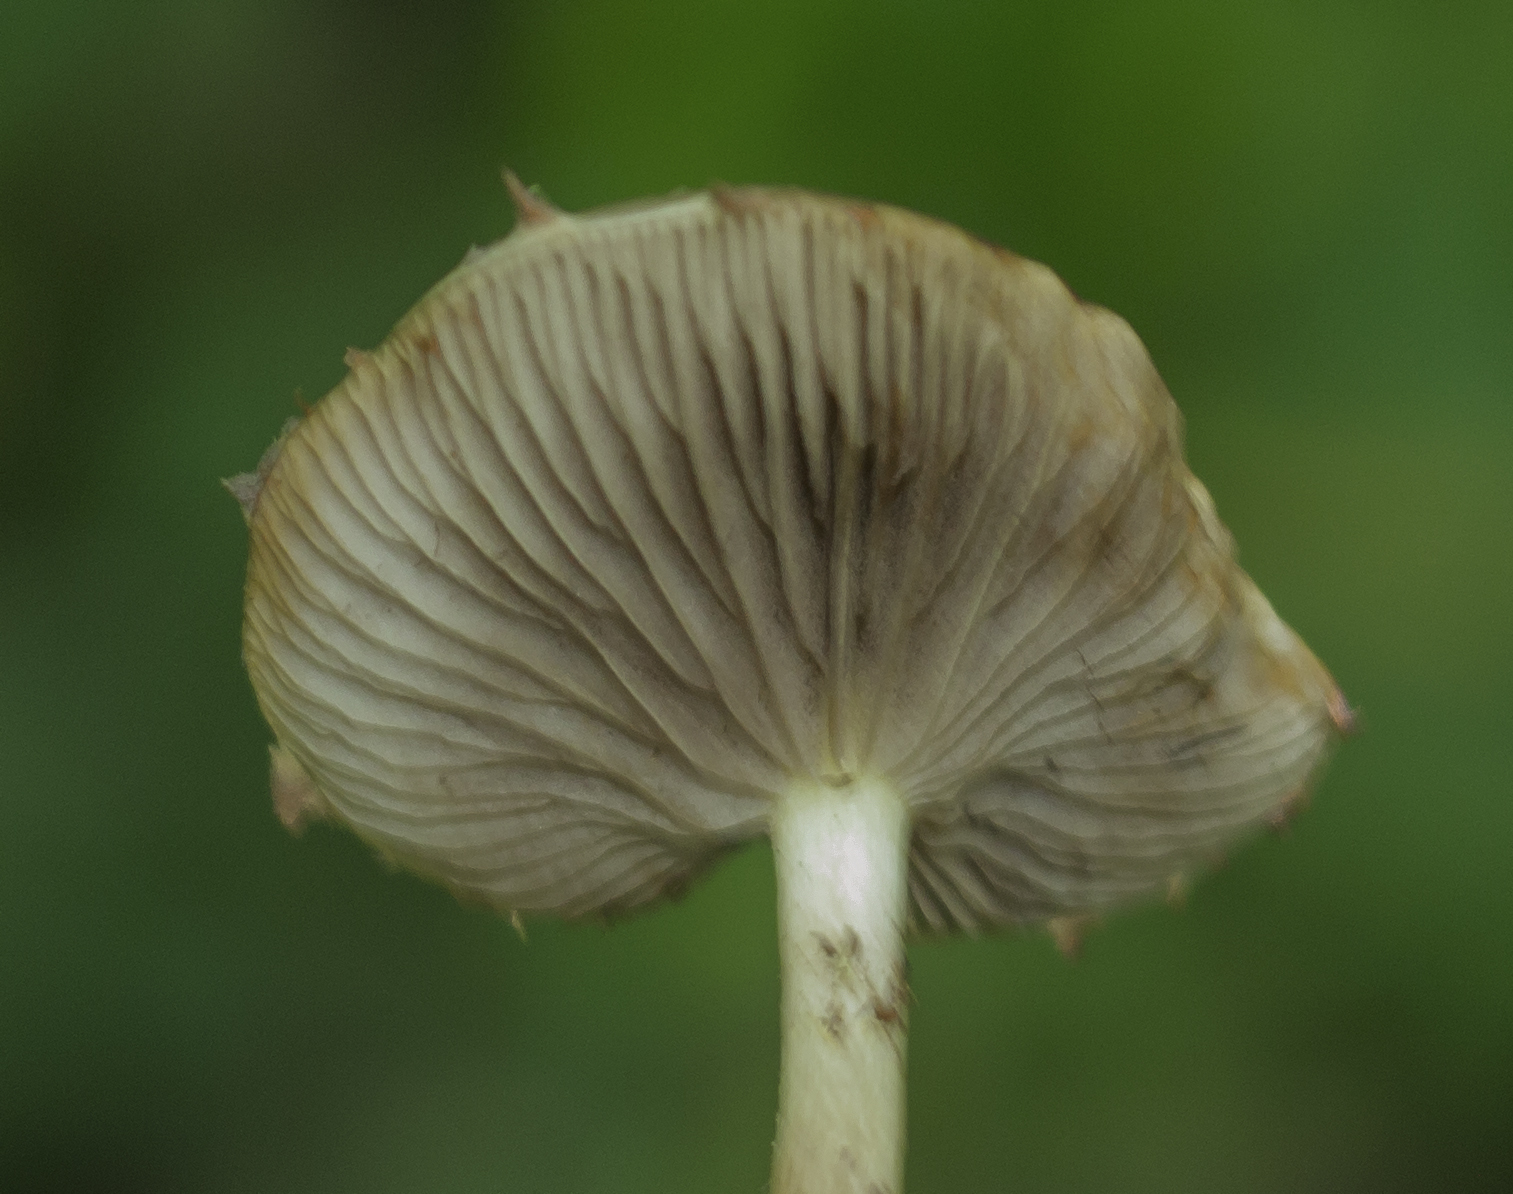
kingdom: Fungi
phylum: Basidiomycota
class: Agaricomycetes
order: Agaricales
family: Strophariaceae
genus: Pholiota
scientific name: Pholiota polychroa
